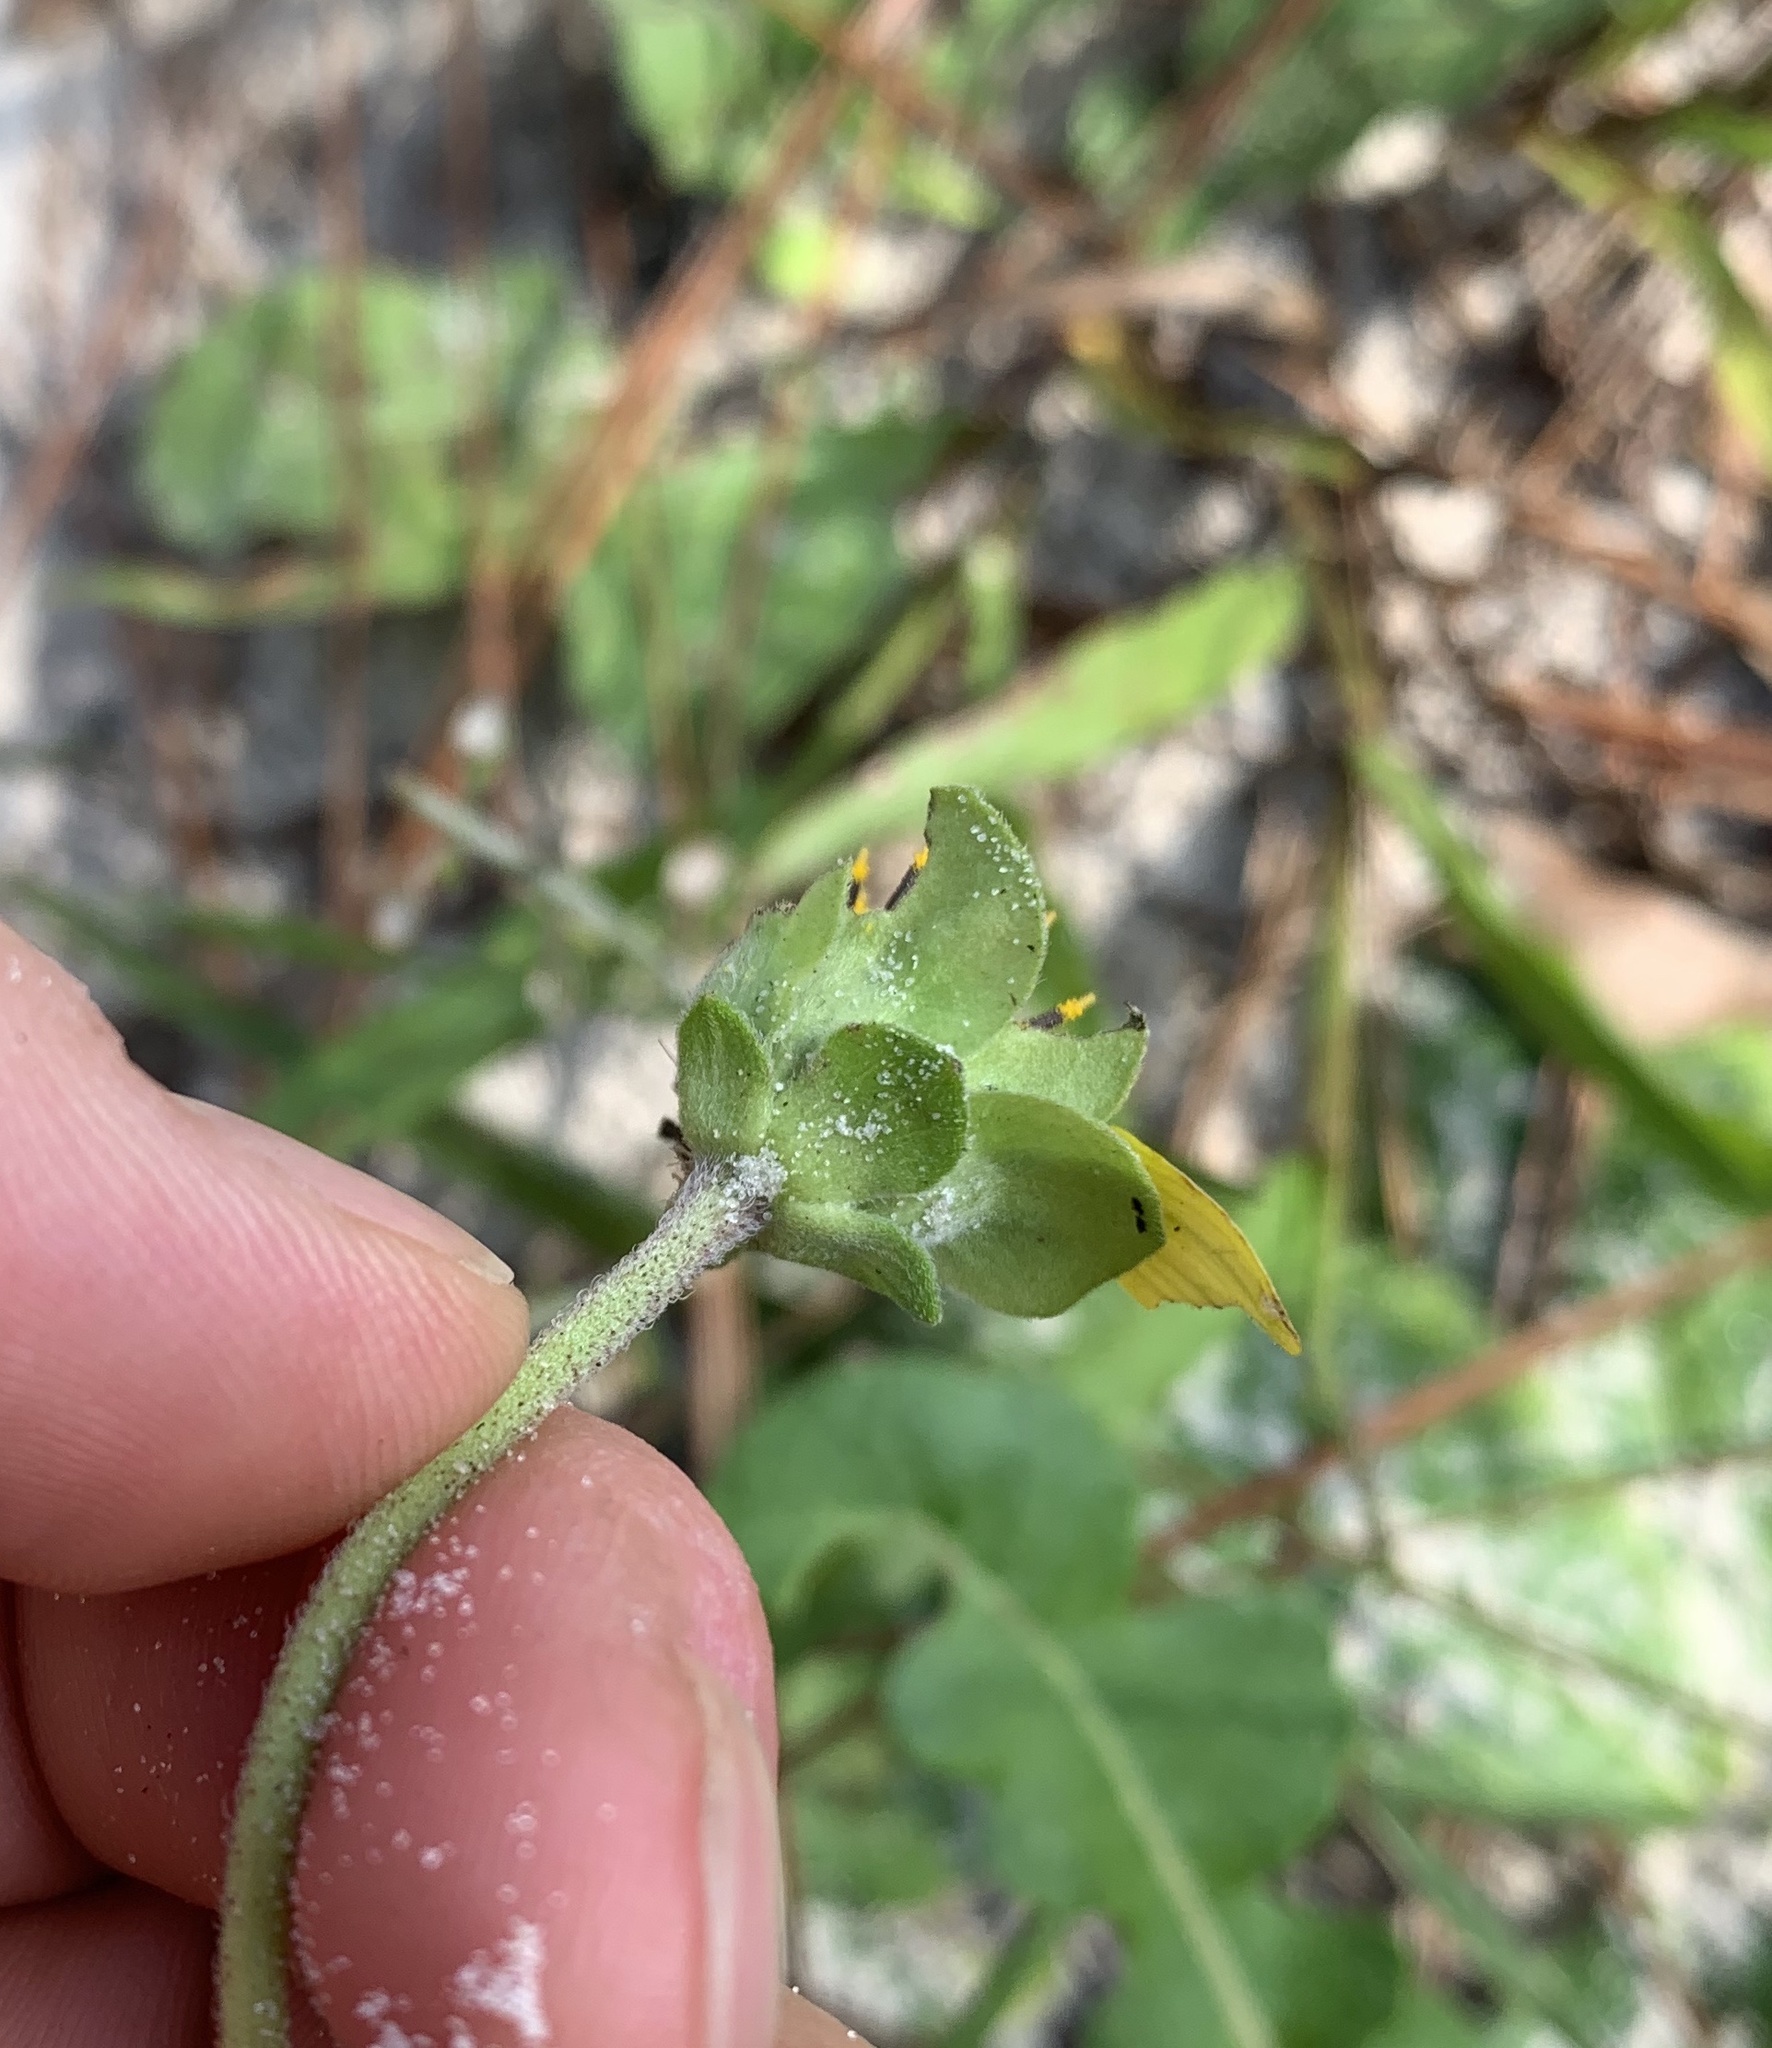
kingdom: Plantae
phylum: Tracheophyta
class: Magnoliopsida
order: Asterales
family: Asteraceae
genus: Berlandiera
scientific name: Berlandiera subacaulis
